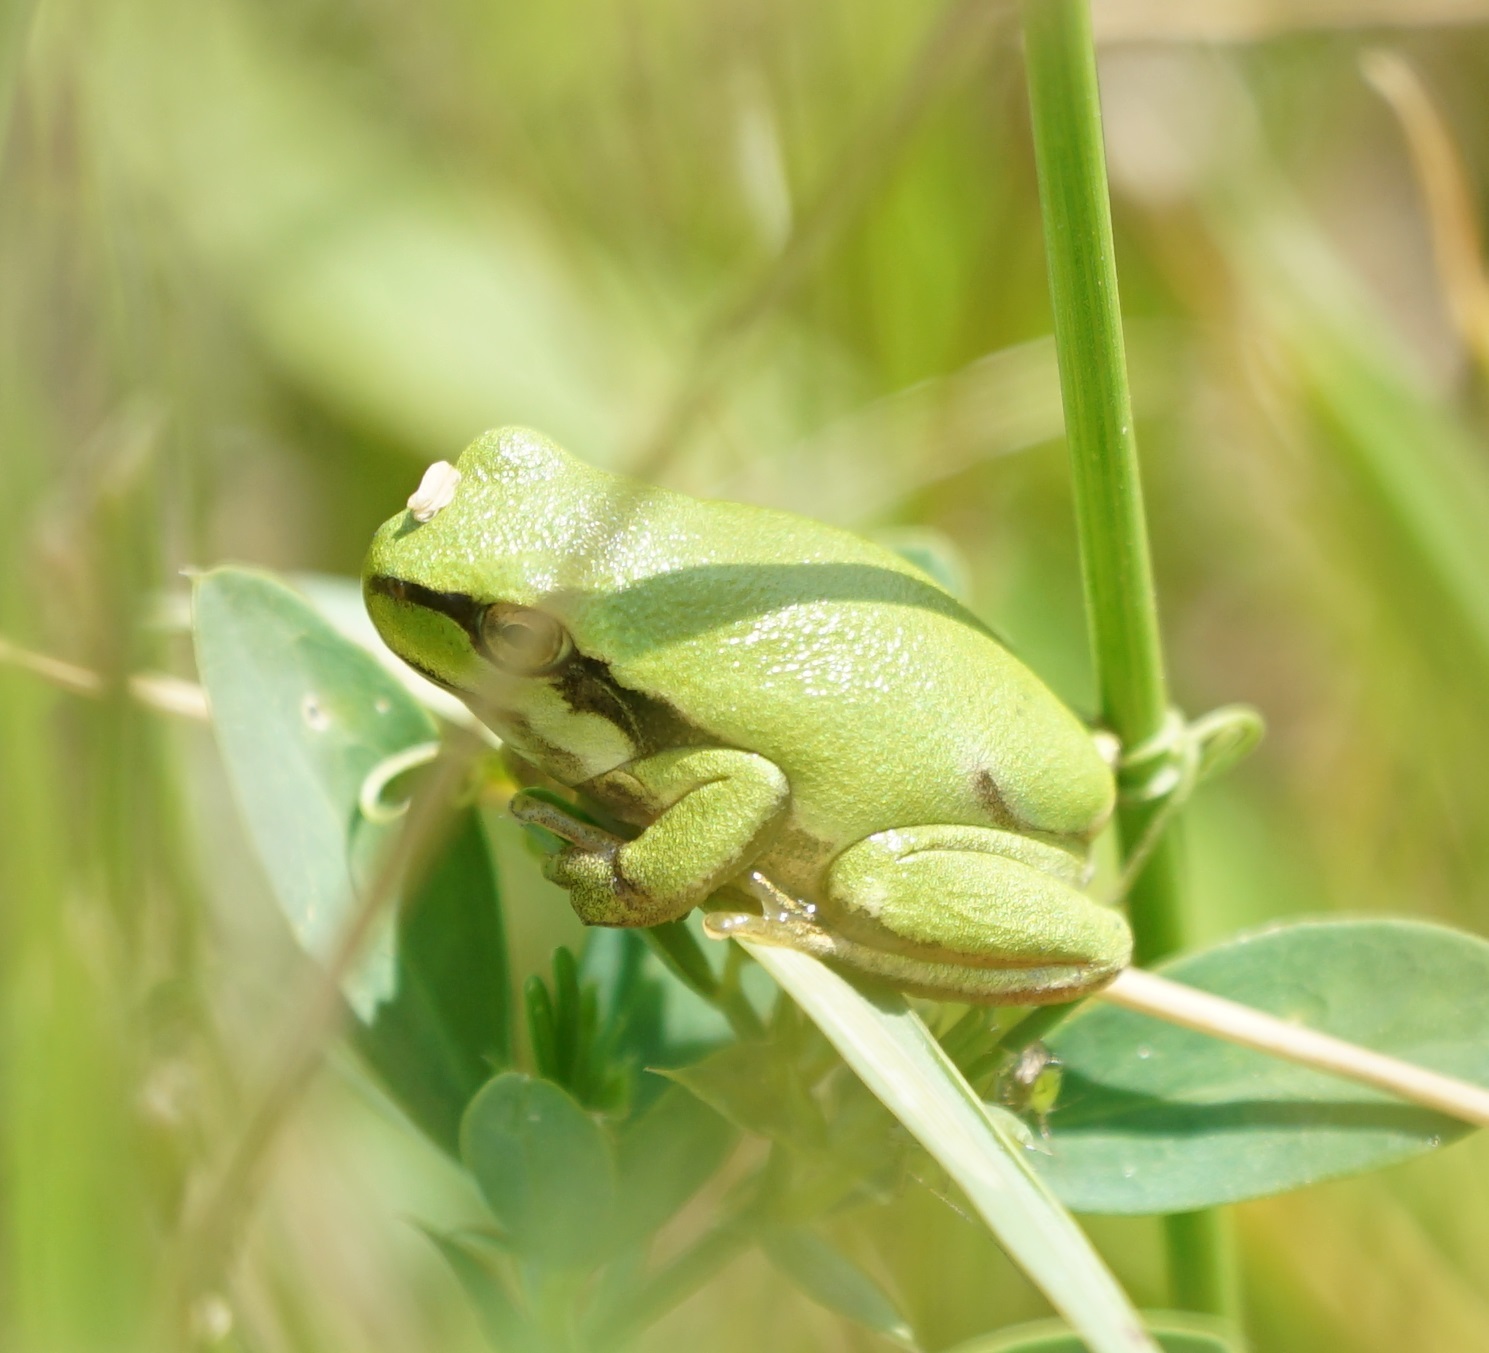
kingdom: Animalia
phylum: Chordata
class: Amphibia
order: Anura
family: Hylidae
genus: Hyla
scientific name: Hyla arborea
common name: Common tree frog
